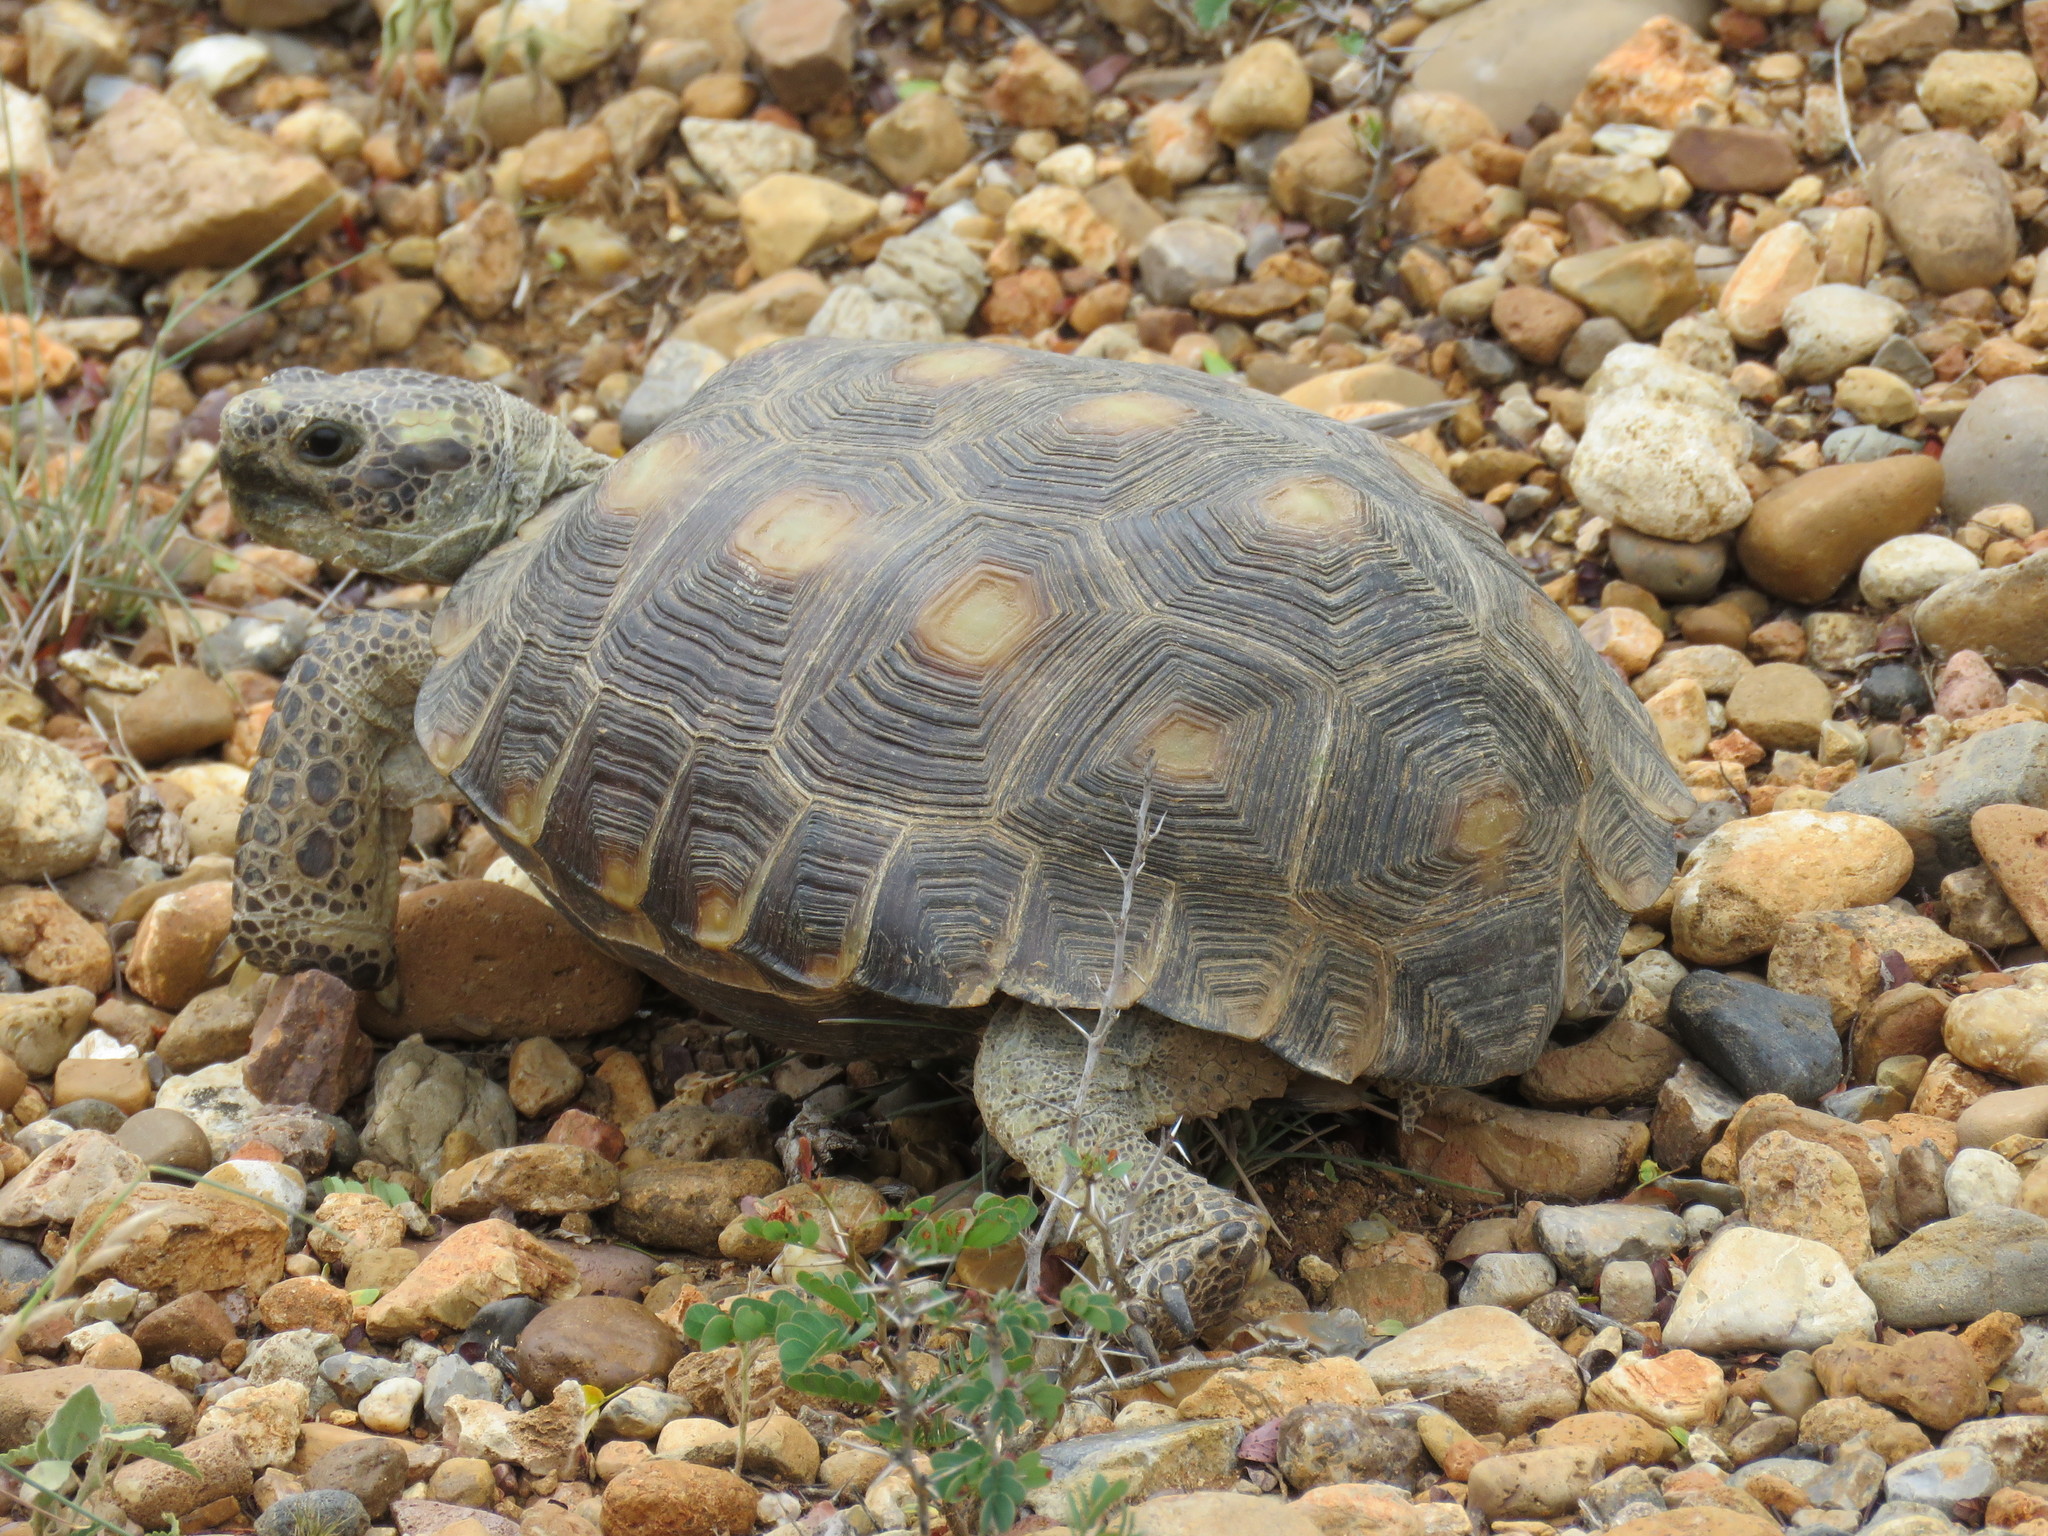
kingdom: Animalia
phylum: Chordata
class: Testudines
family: Testudinidae
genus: Gopherus
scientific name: Gopherus berlandieri
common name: Texas (gopher )tortoise
